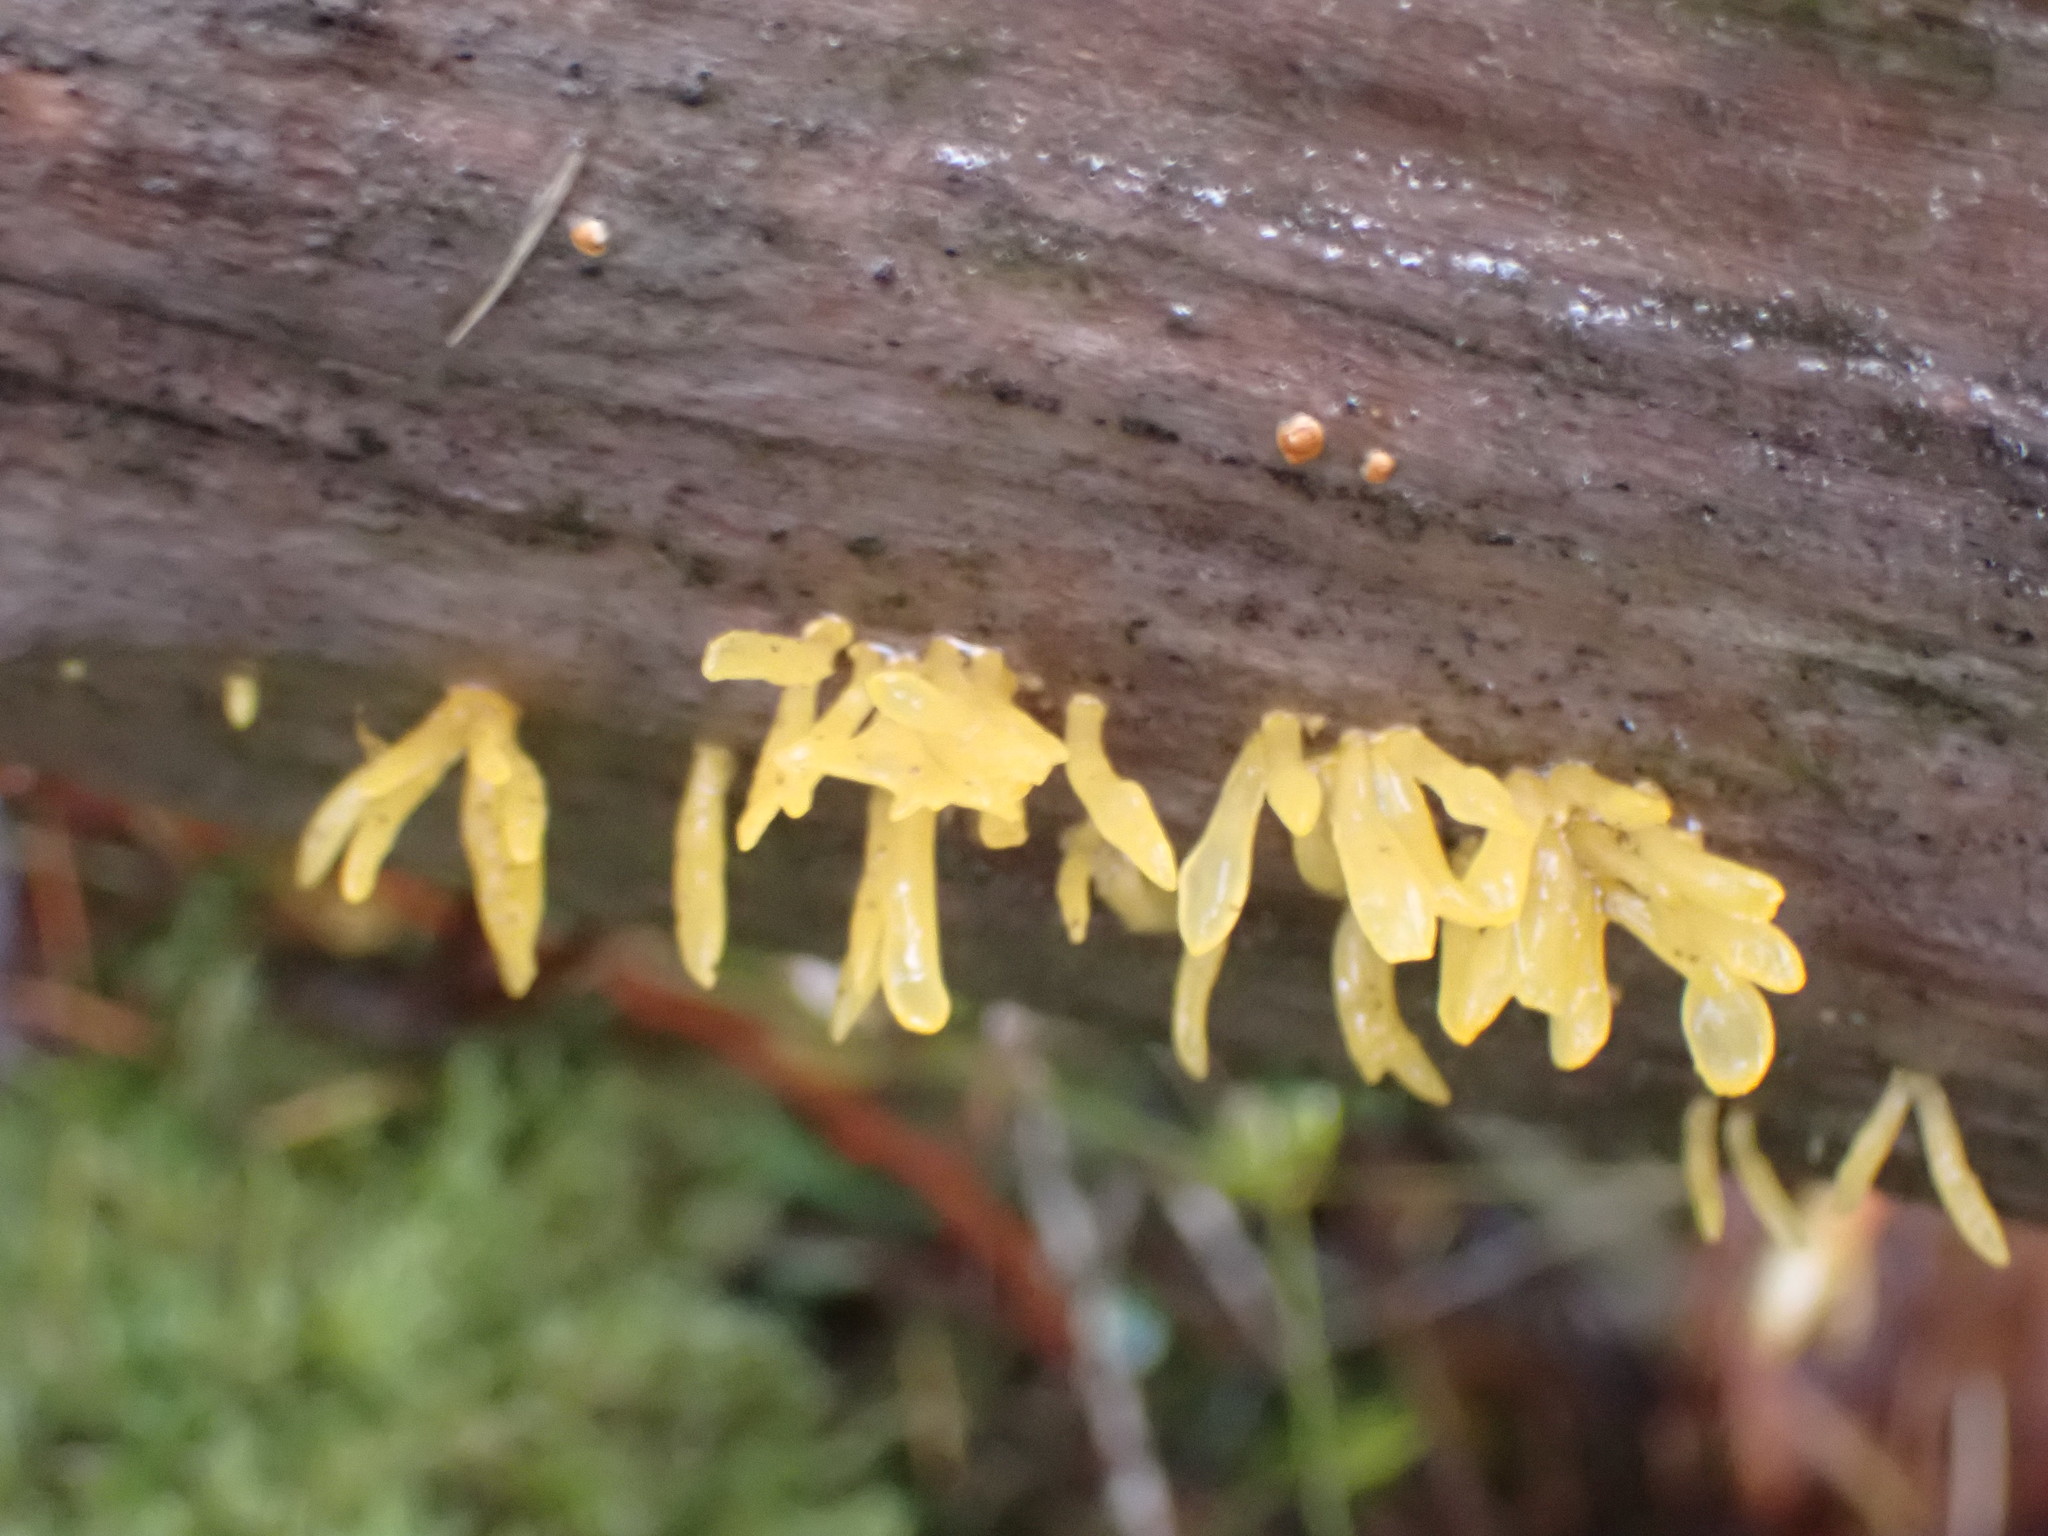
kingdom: Fungi
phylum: Basidiomycota
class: Dacrymycetes
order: Dacrymycetales
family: Dacrymycetaceae
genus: Calocera
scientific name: Calocera cornea
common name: Small stagshorn
